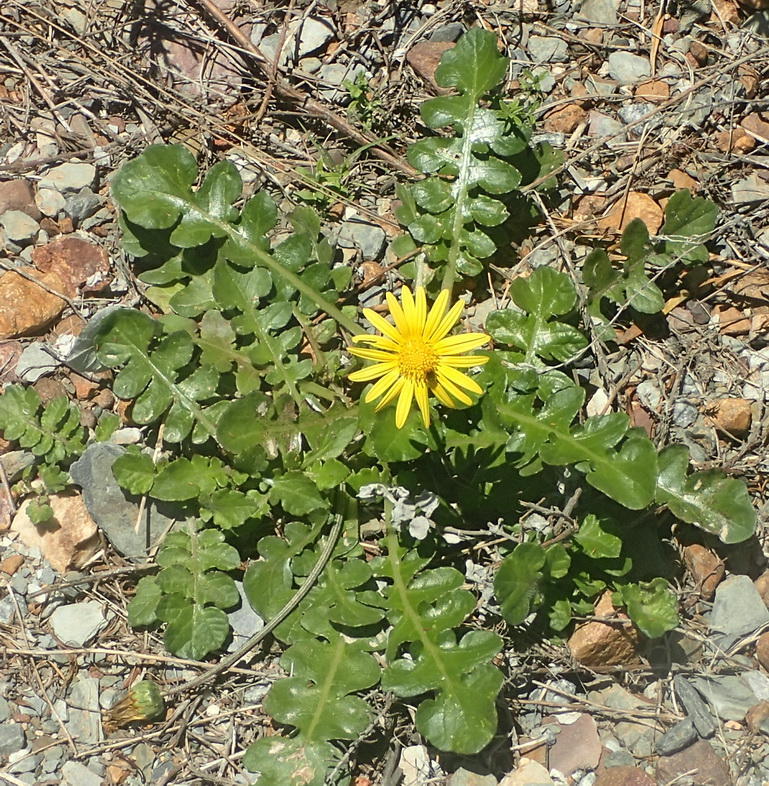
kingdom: Plantae
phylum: Tracheophyta
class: Magnoliopsida
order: Asterales
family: Asteraceae
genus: Arctotheca
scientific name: Arctotheca prostrata
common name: Capeweed
